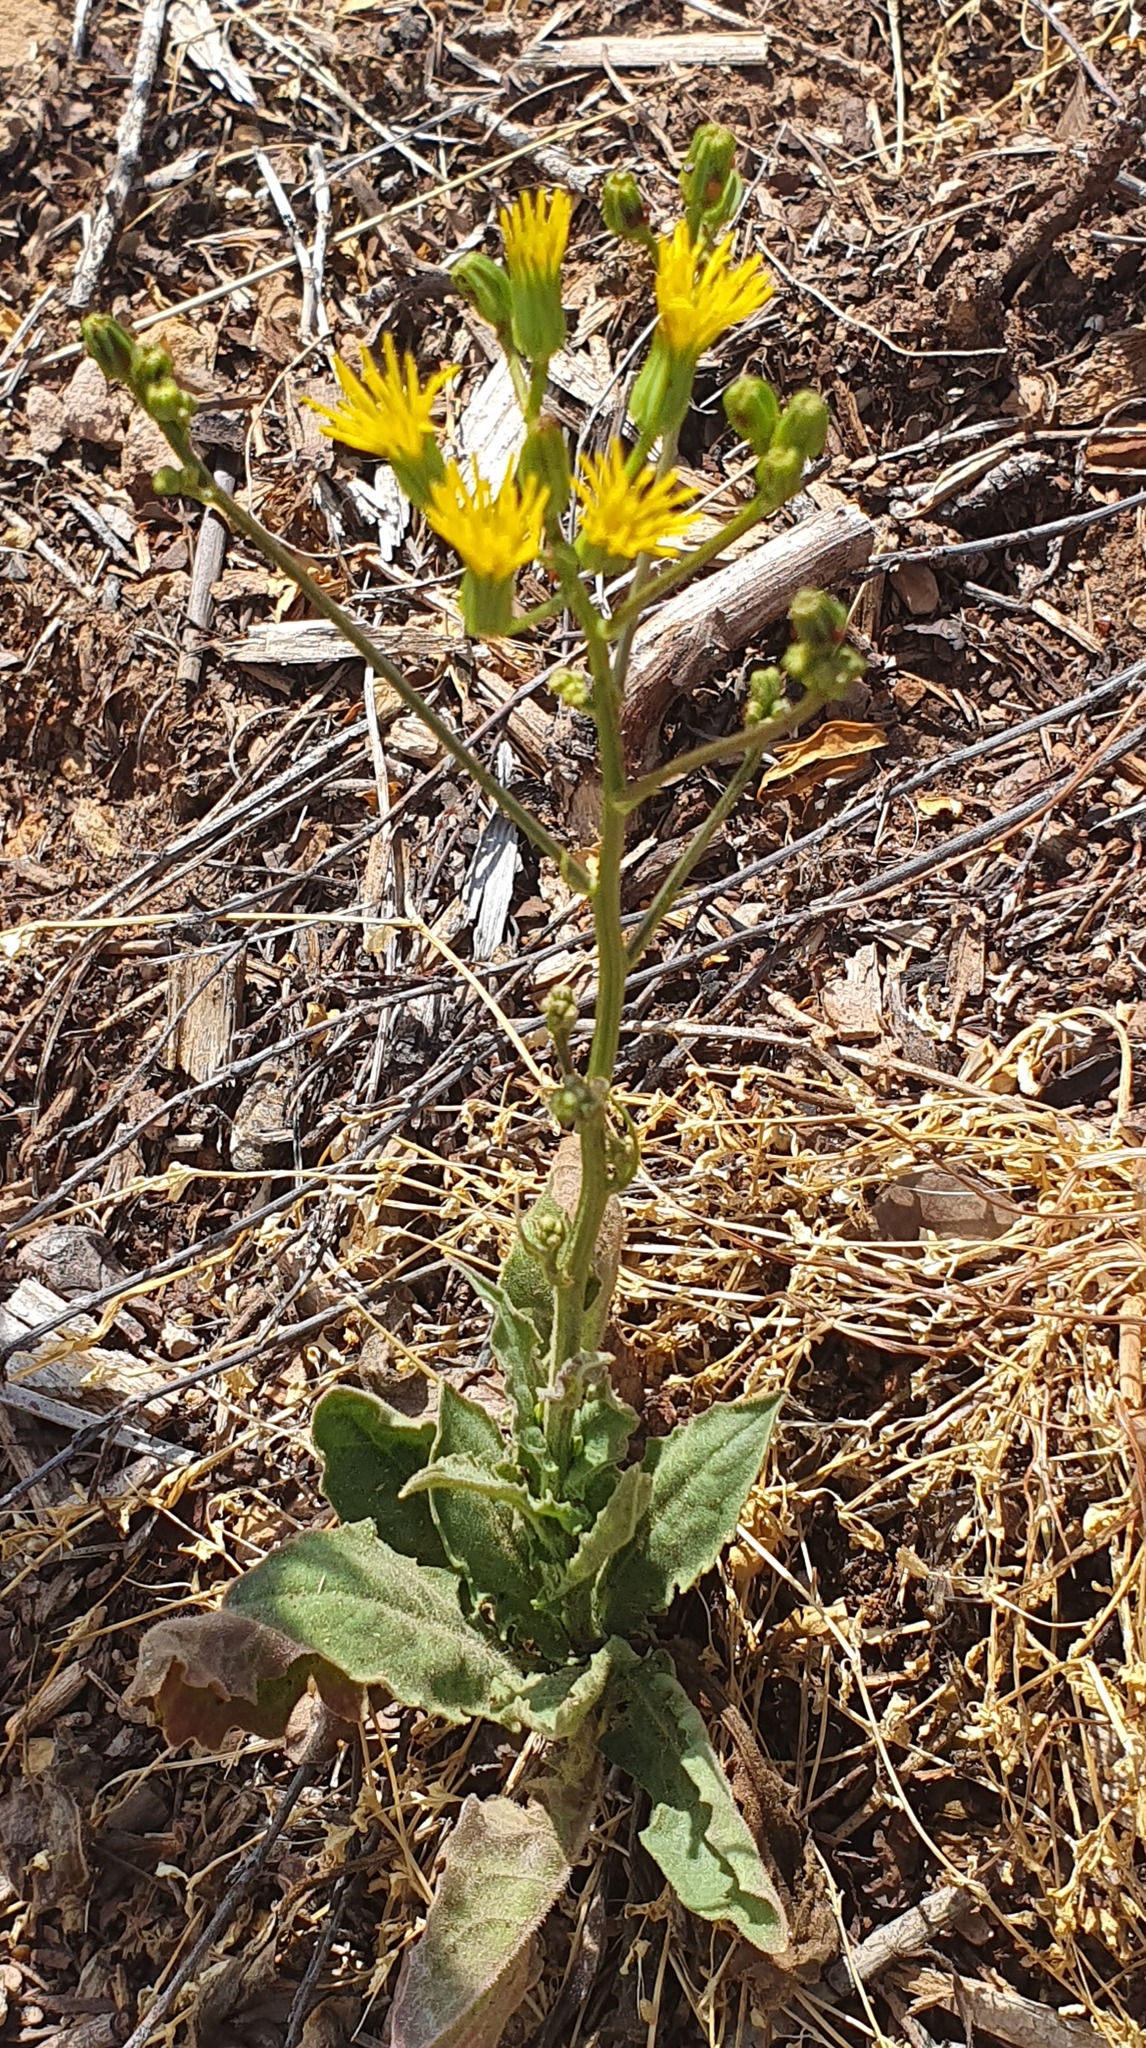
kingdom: Plantae
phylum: Tracheophyta
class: Magnoliopsida
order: Asterales
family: Asteraceae
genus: Crepis
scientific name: Crepis pulchra
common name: Hawk's-beard
